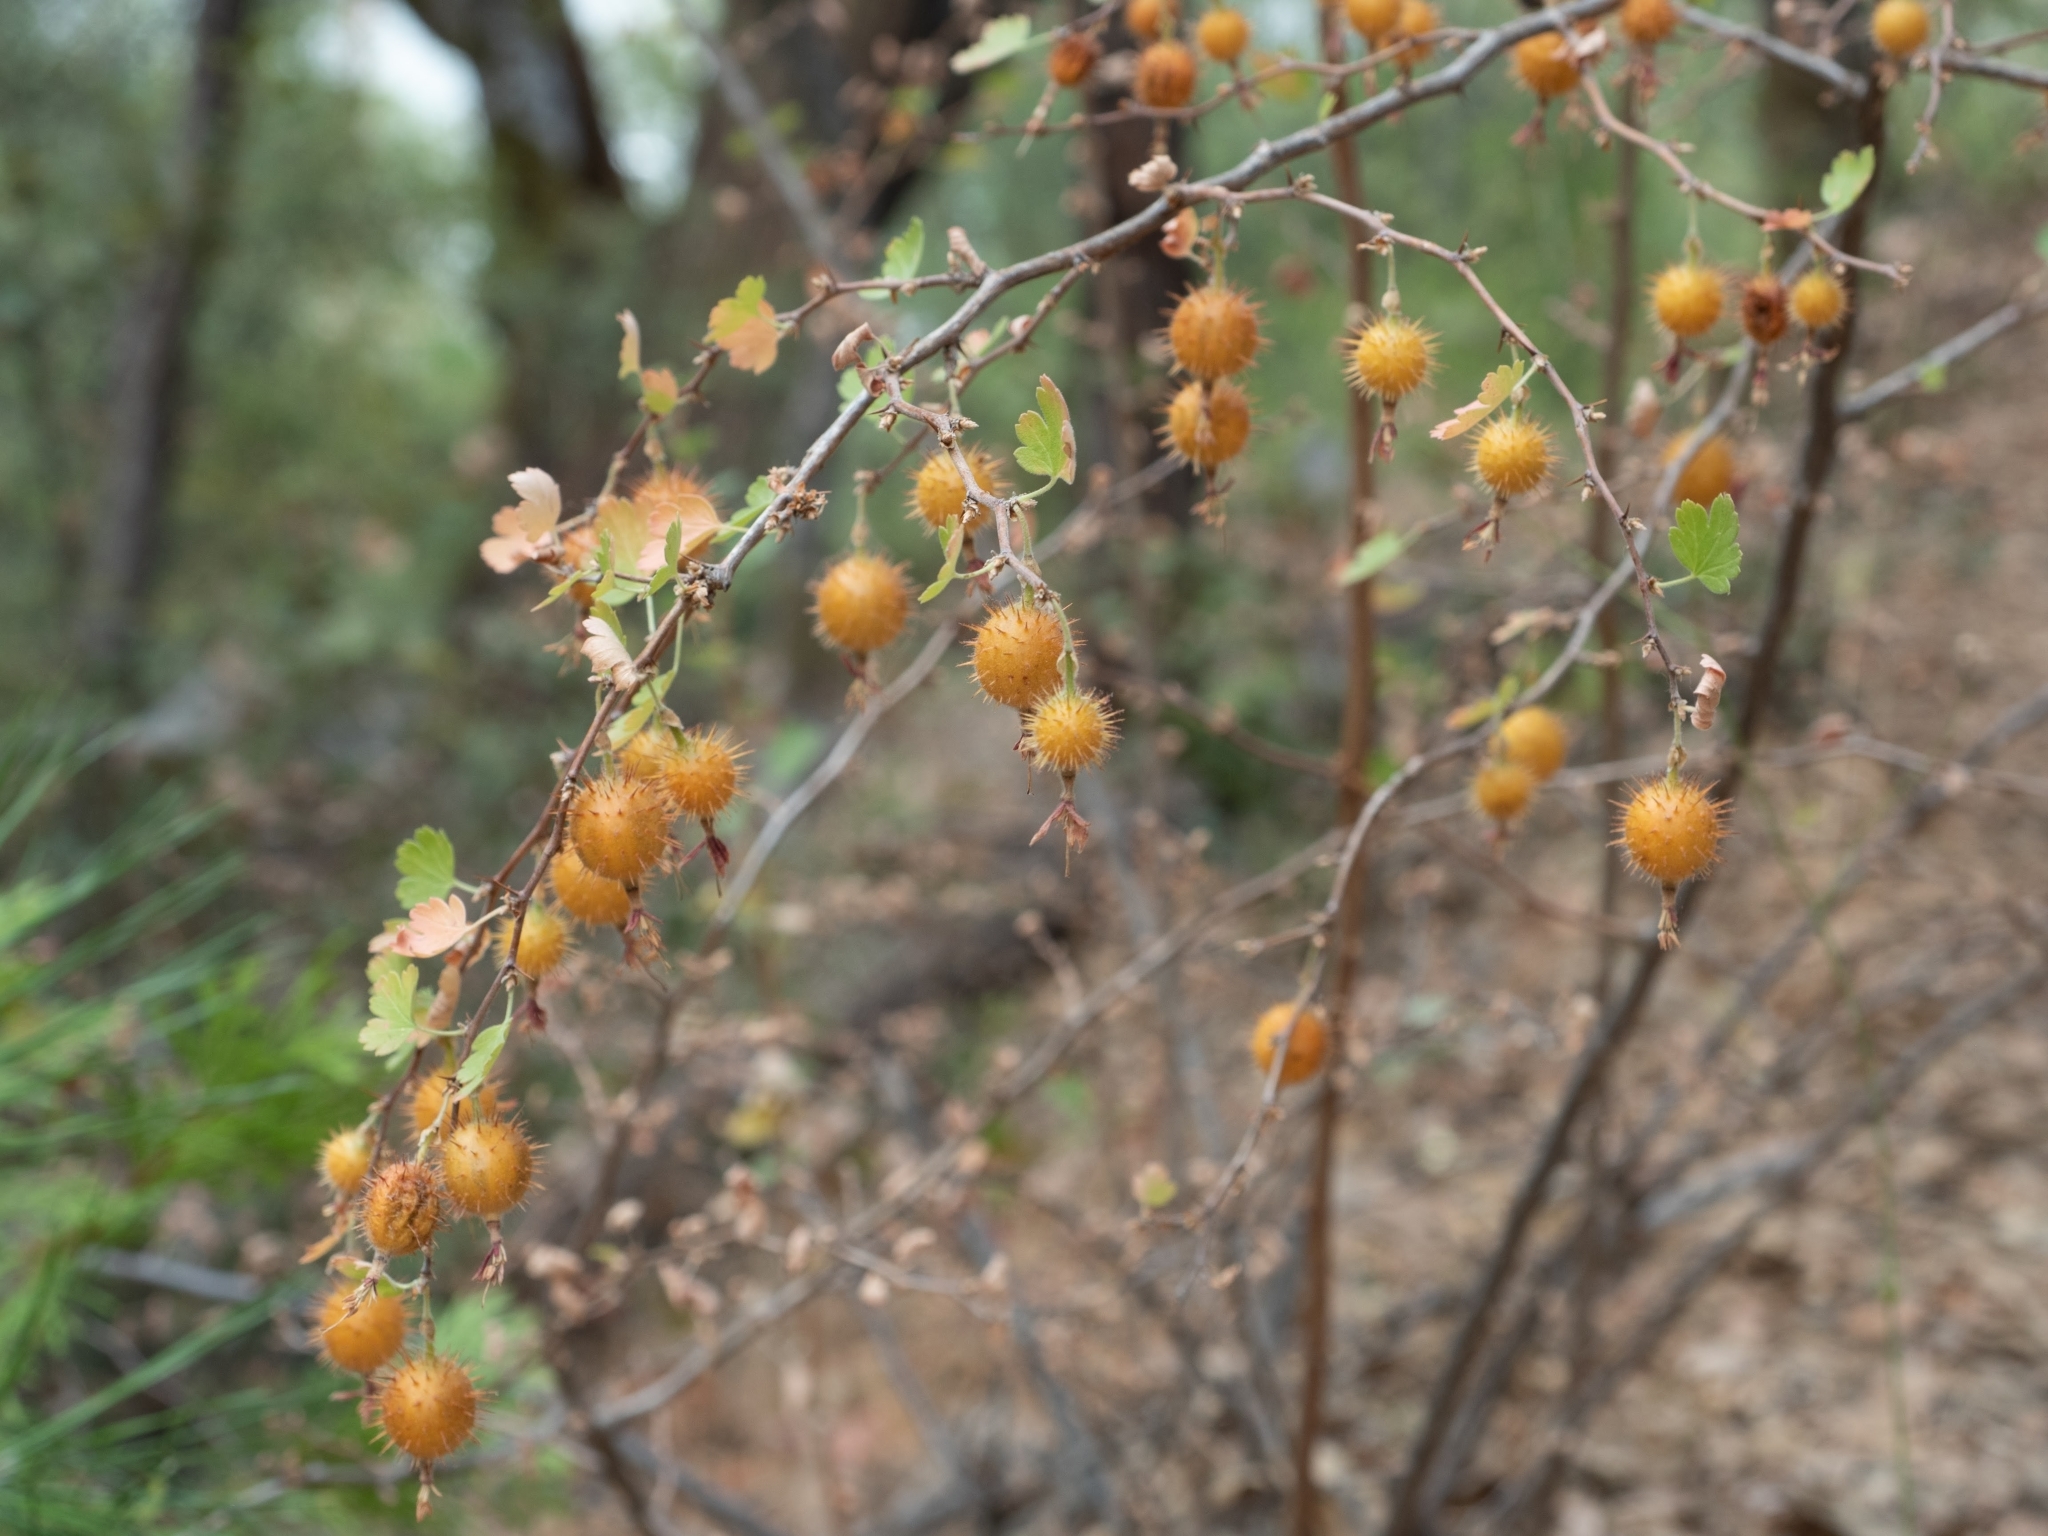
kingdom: Plantae
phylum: Tracheophyta
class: Magnoliopsida
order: Saxifragales
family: Grossulariaceae
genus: Ribes
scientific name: Ribes roezlii
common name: Sierra gooseberry
